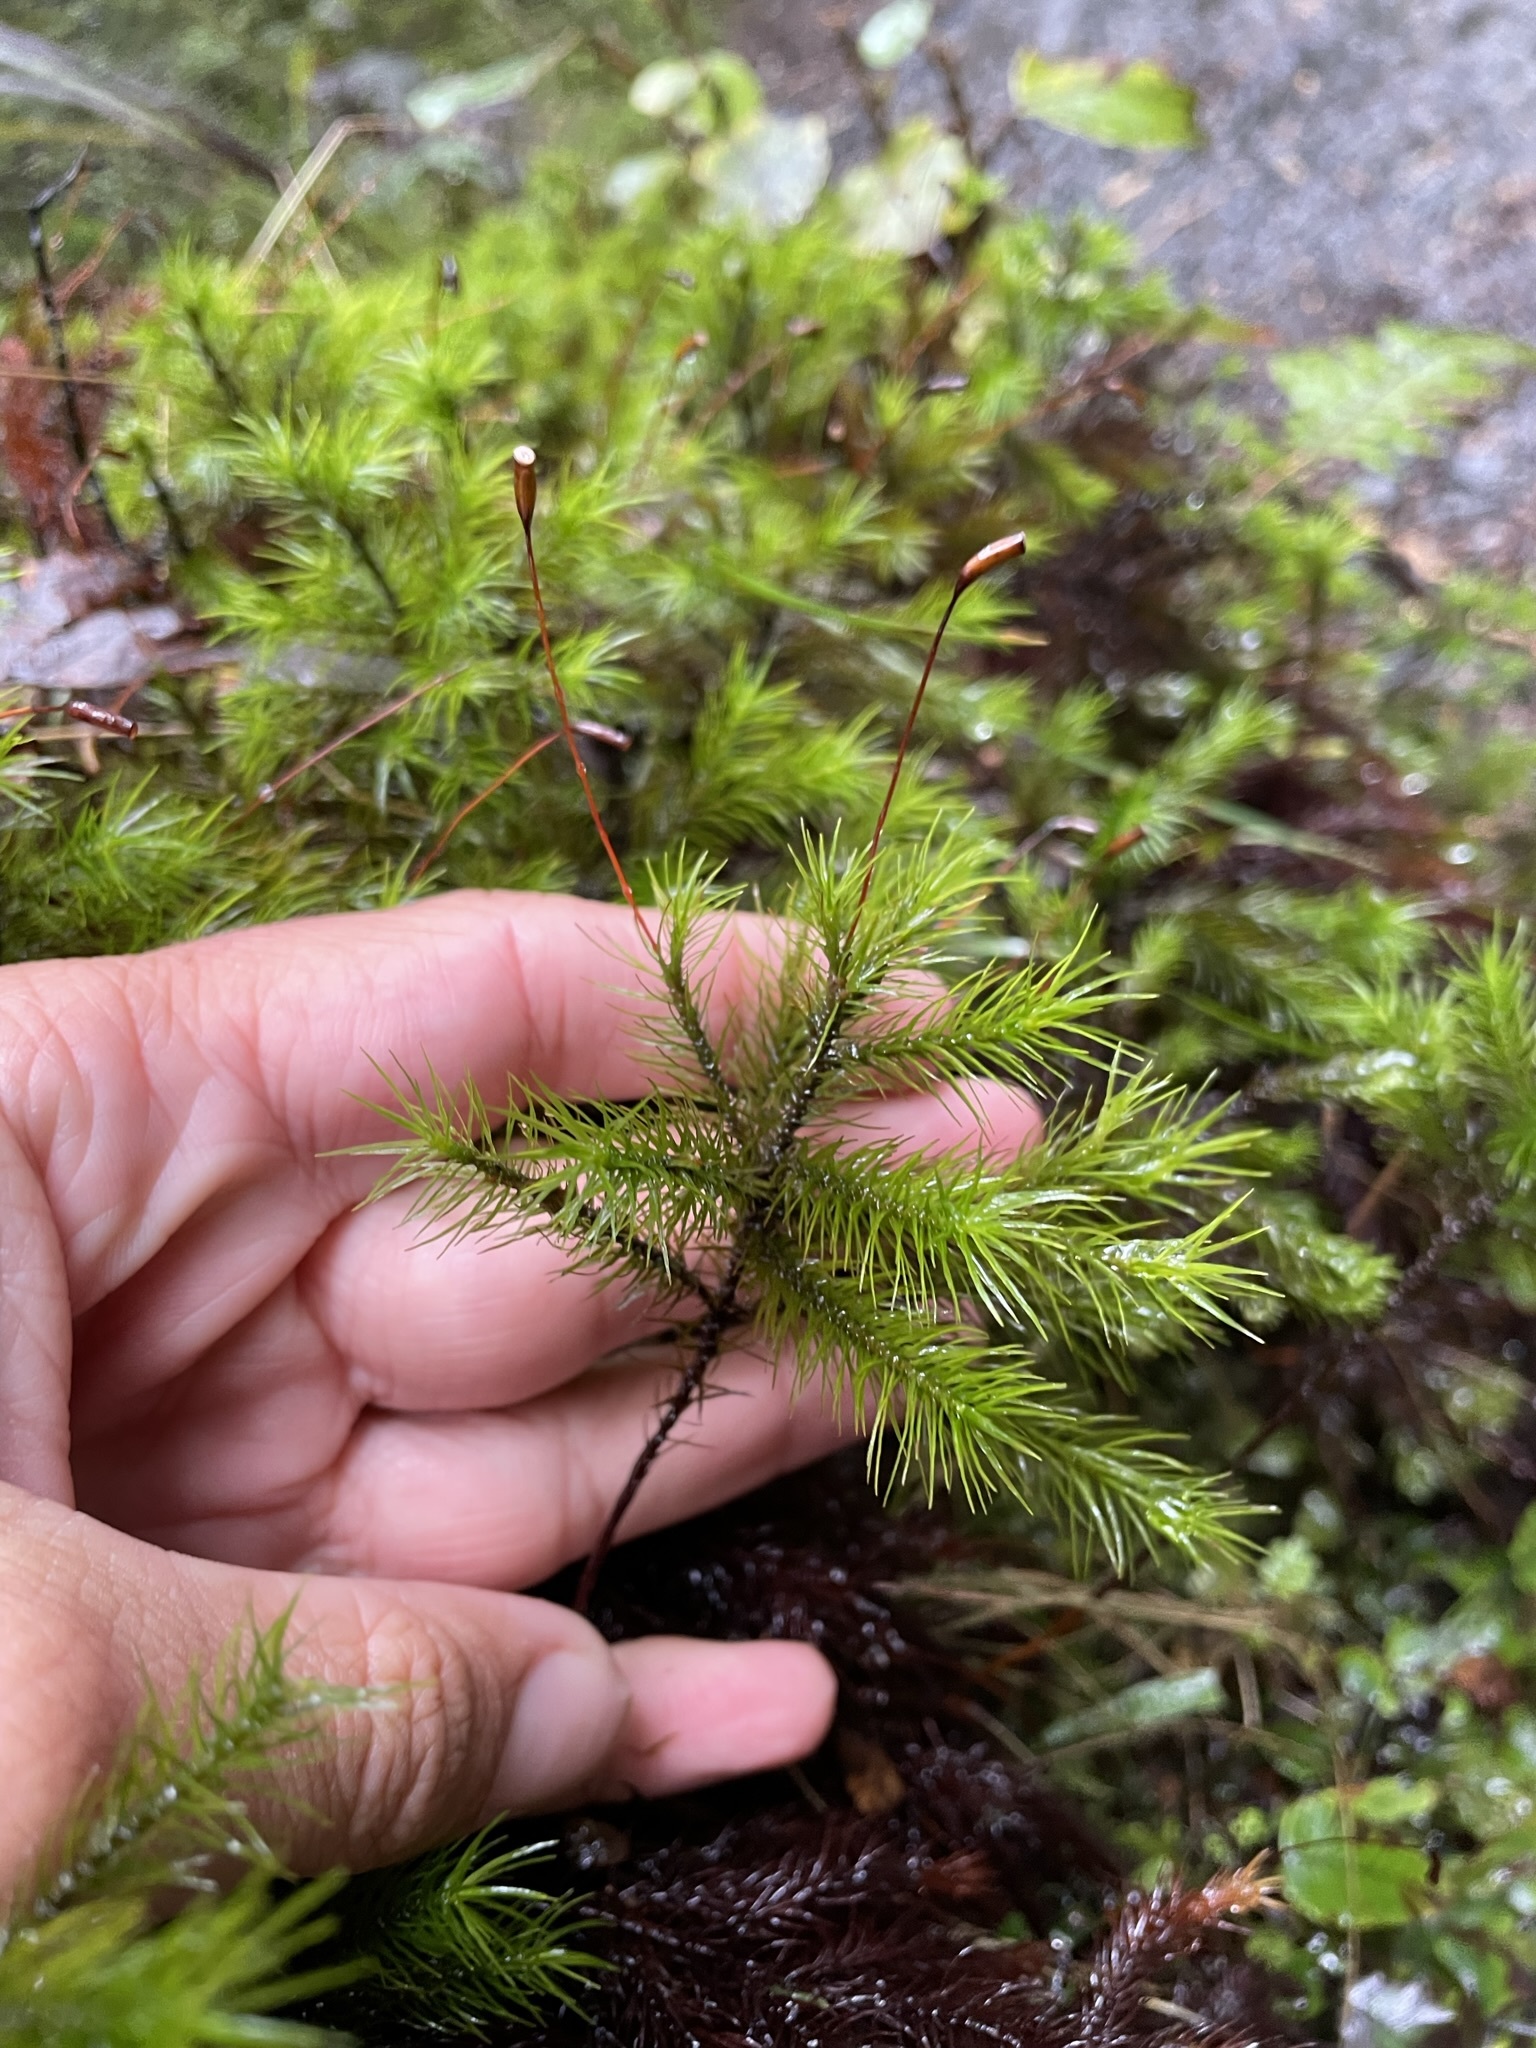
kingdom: Plantae
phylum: Bryophyta
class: Polytrichopsida
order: Polytrichales
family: Polytrichaceae
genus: Dendroligotrichum
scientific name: Dendroligotrichum tongariroense
